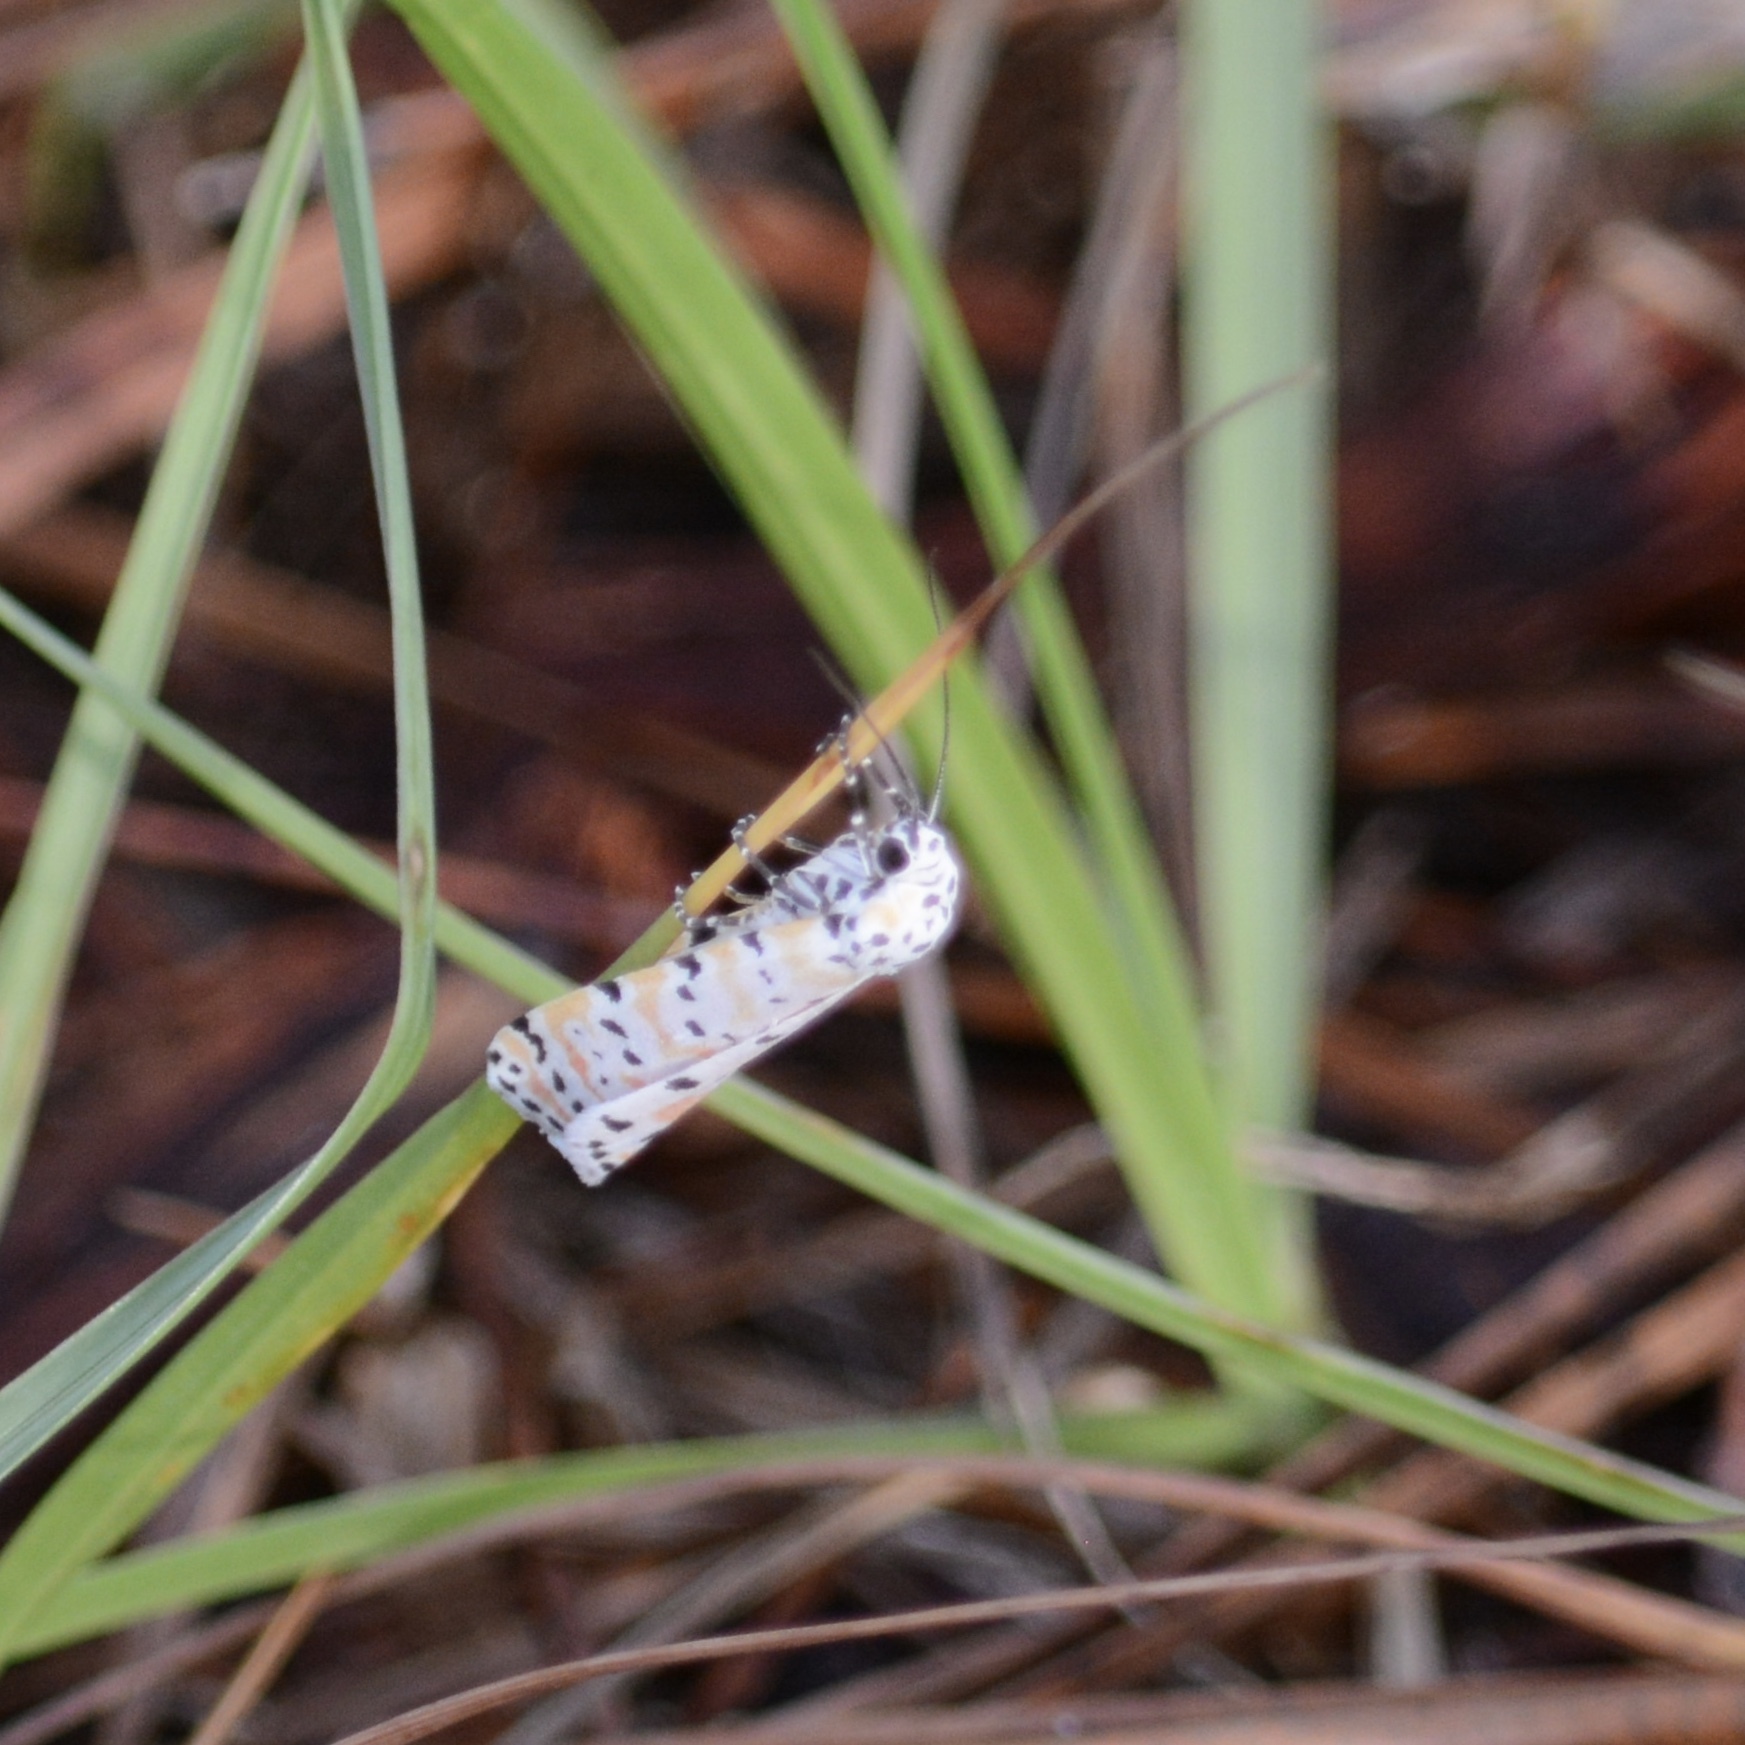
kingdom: Animalia
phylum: Arthropoda
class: Insecta
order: Lepidoptera
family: Erebidae
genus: Utetheisa
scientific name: Utetheisa ornatrix
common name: Beautiful utetheisa
